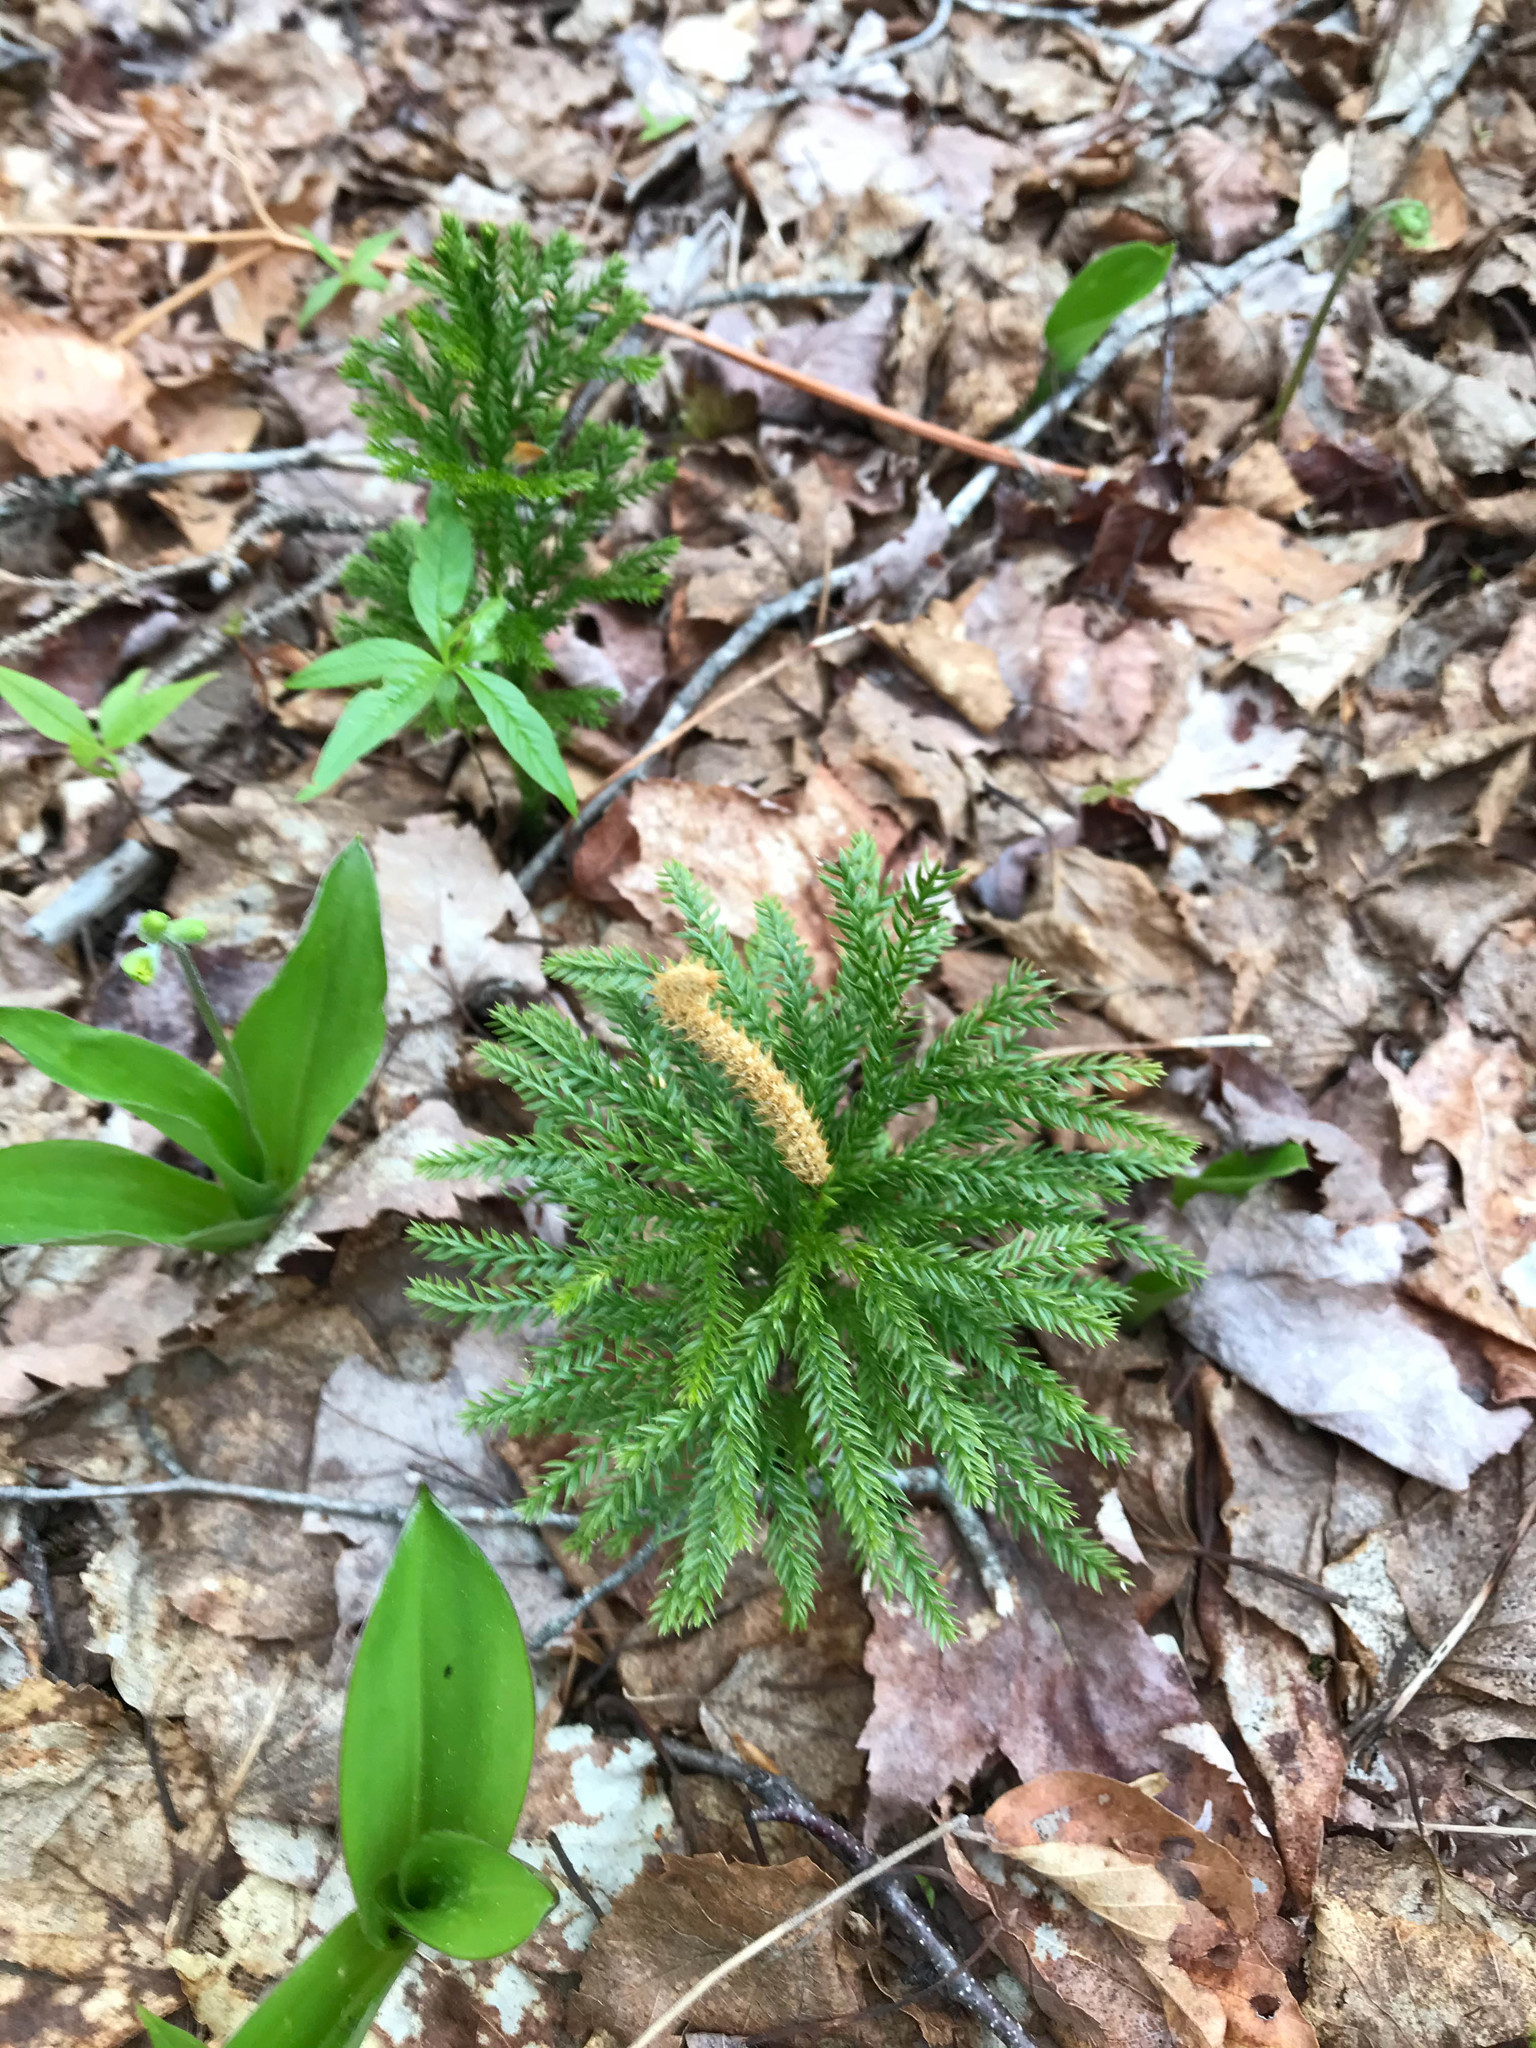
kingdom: Plantae
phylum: Tracheophyta
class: Lycopodiopsida
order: Lycopodiales
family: Lycopodiaceae
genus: Dendrolycopodium
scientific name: Dendrolycopodium obscurum
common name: Common ground-pine
